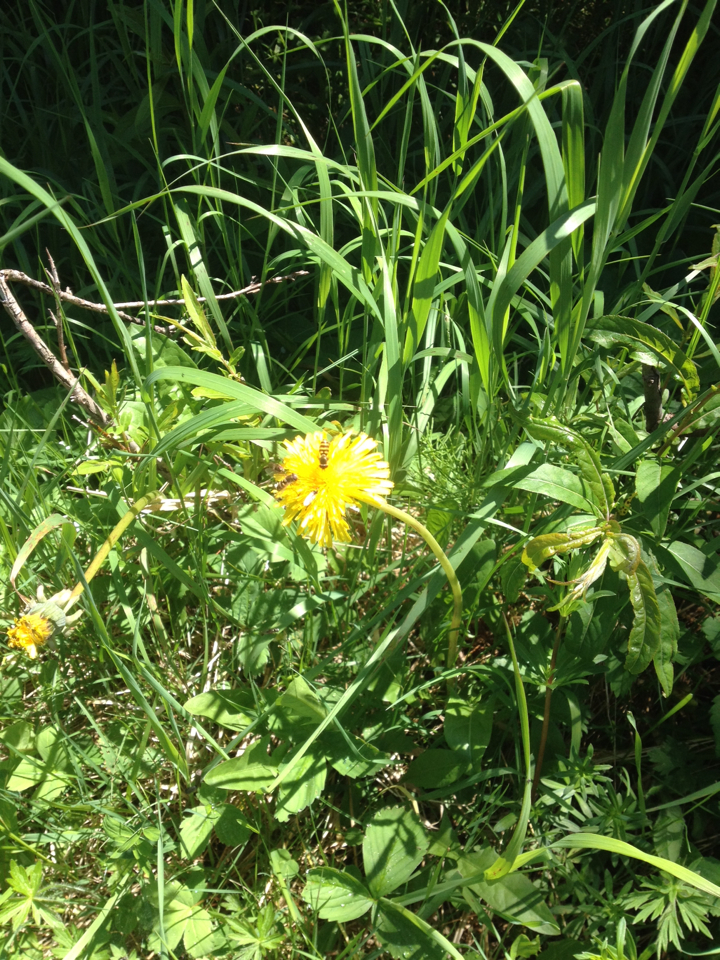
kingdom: Plantae
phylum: Tracheophyta
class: Magnoliopsida
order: Asterales
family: Asteraceae
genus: Taraxacum
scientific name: Taraxacum officinale
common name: Common dandelion
